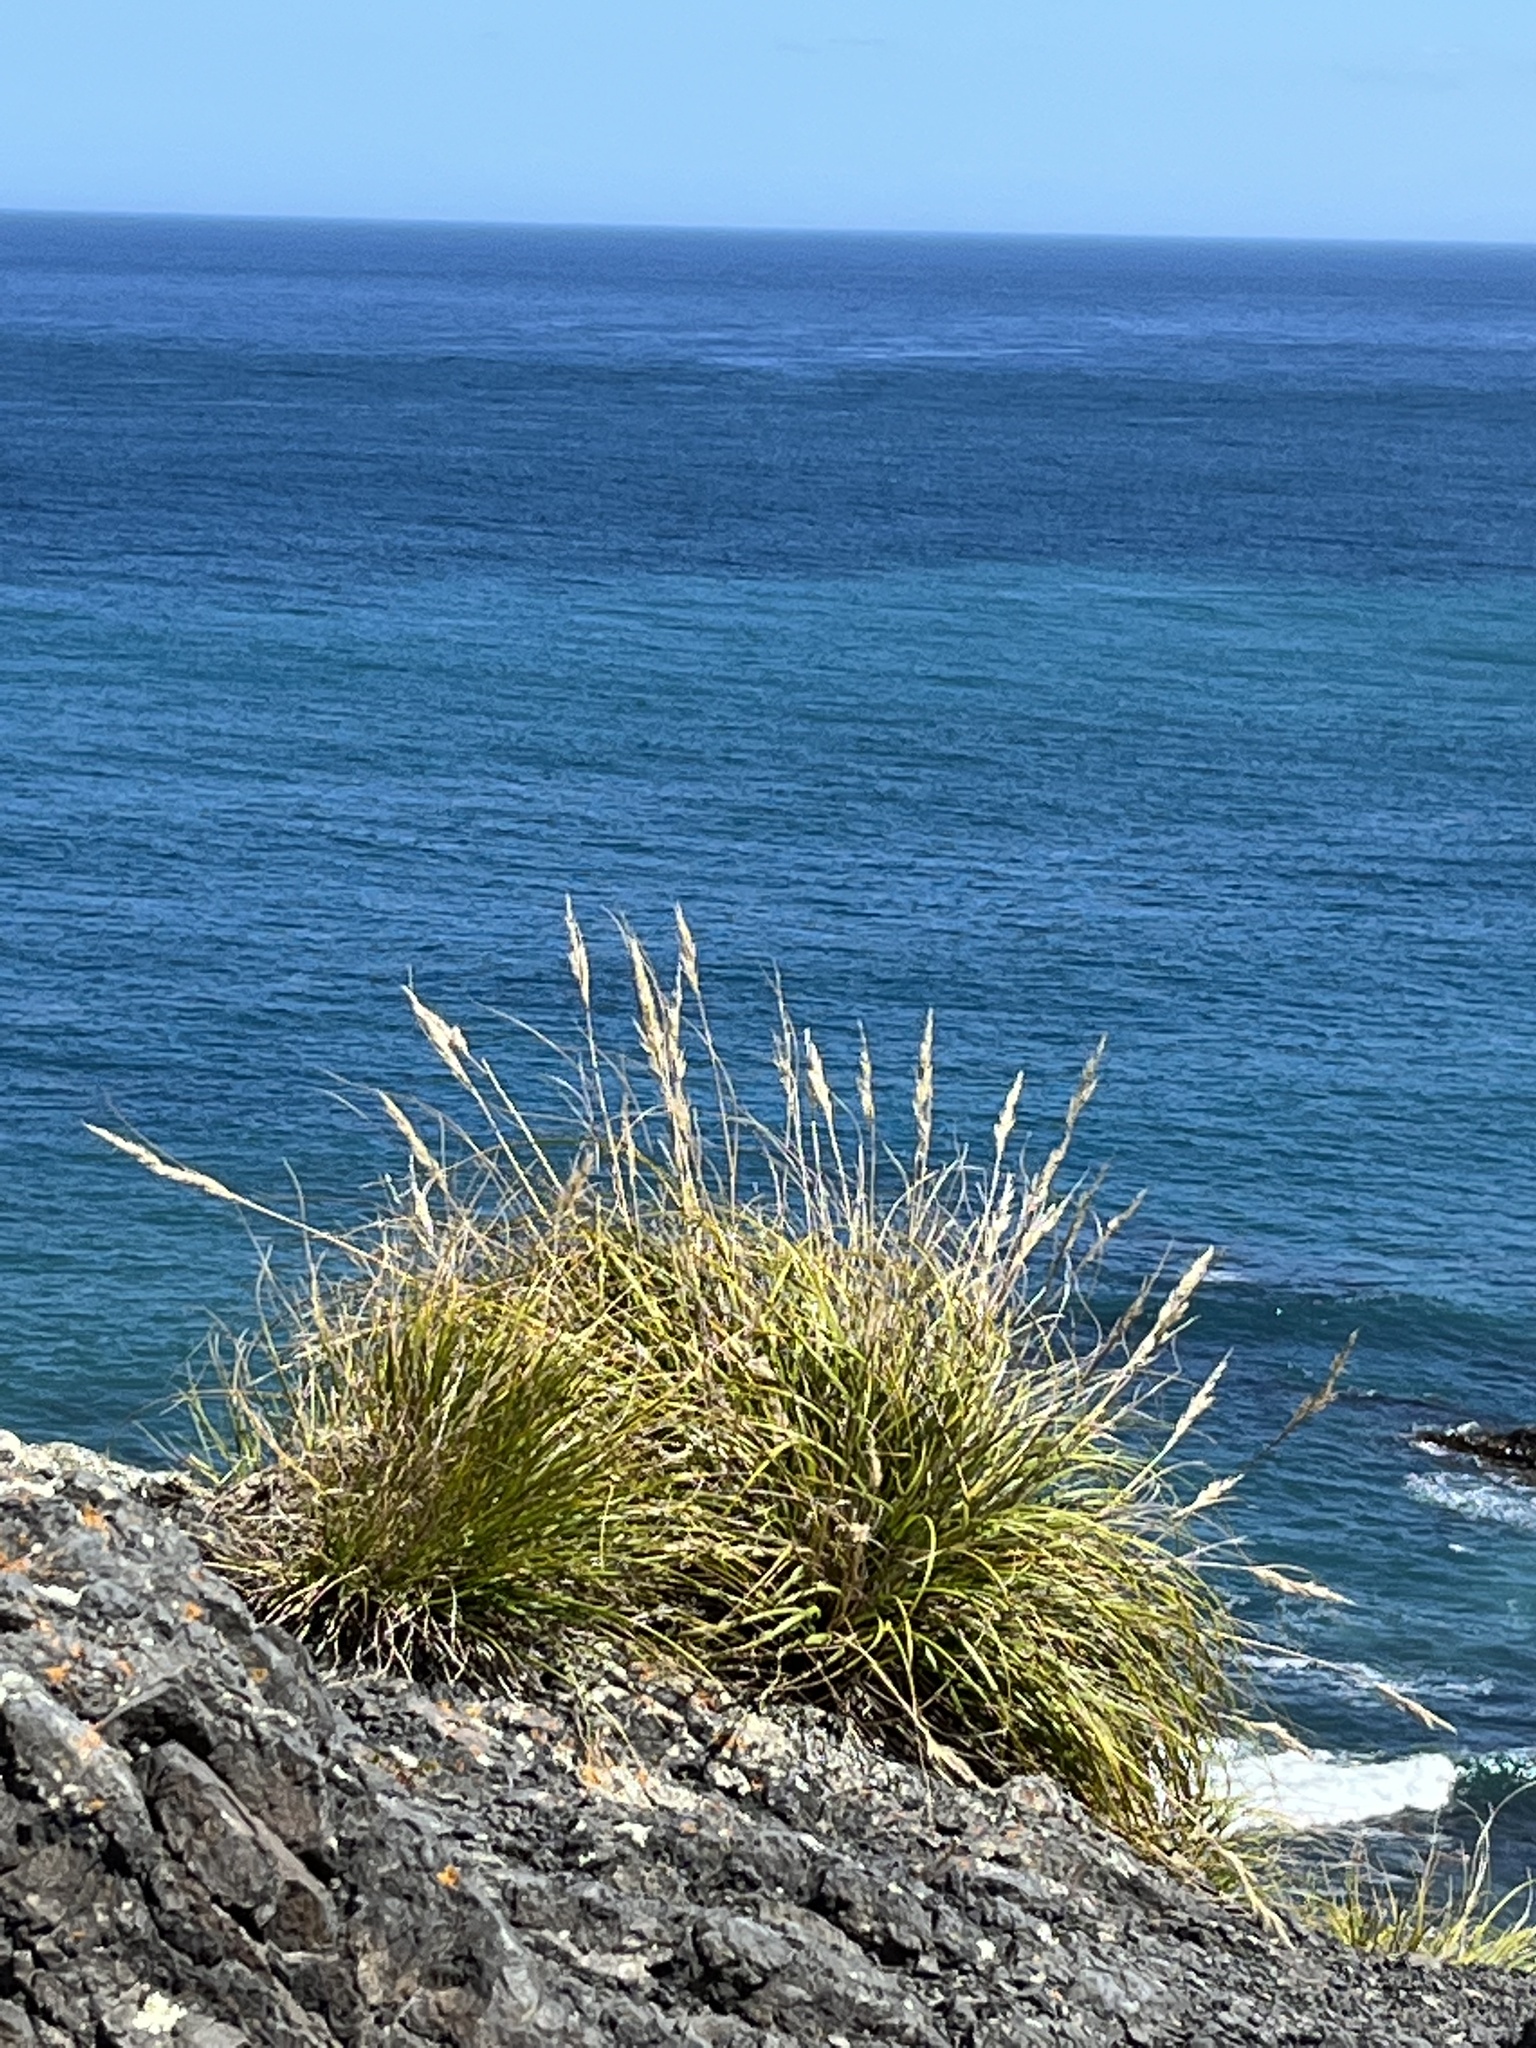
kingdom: Plantae
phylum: Tracheophyta
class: Liliopsida
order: Poales
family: Poaceae
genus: Chionochloa
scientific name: Chionochloa beddiei
